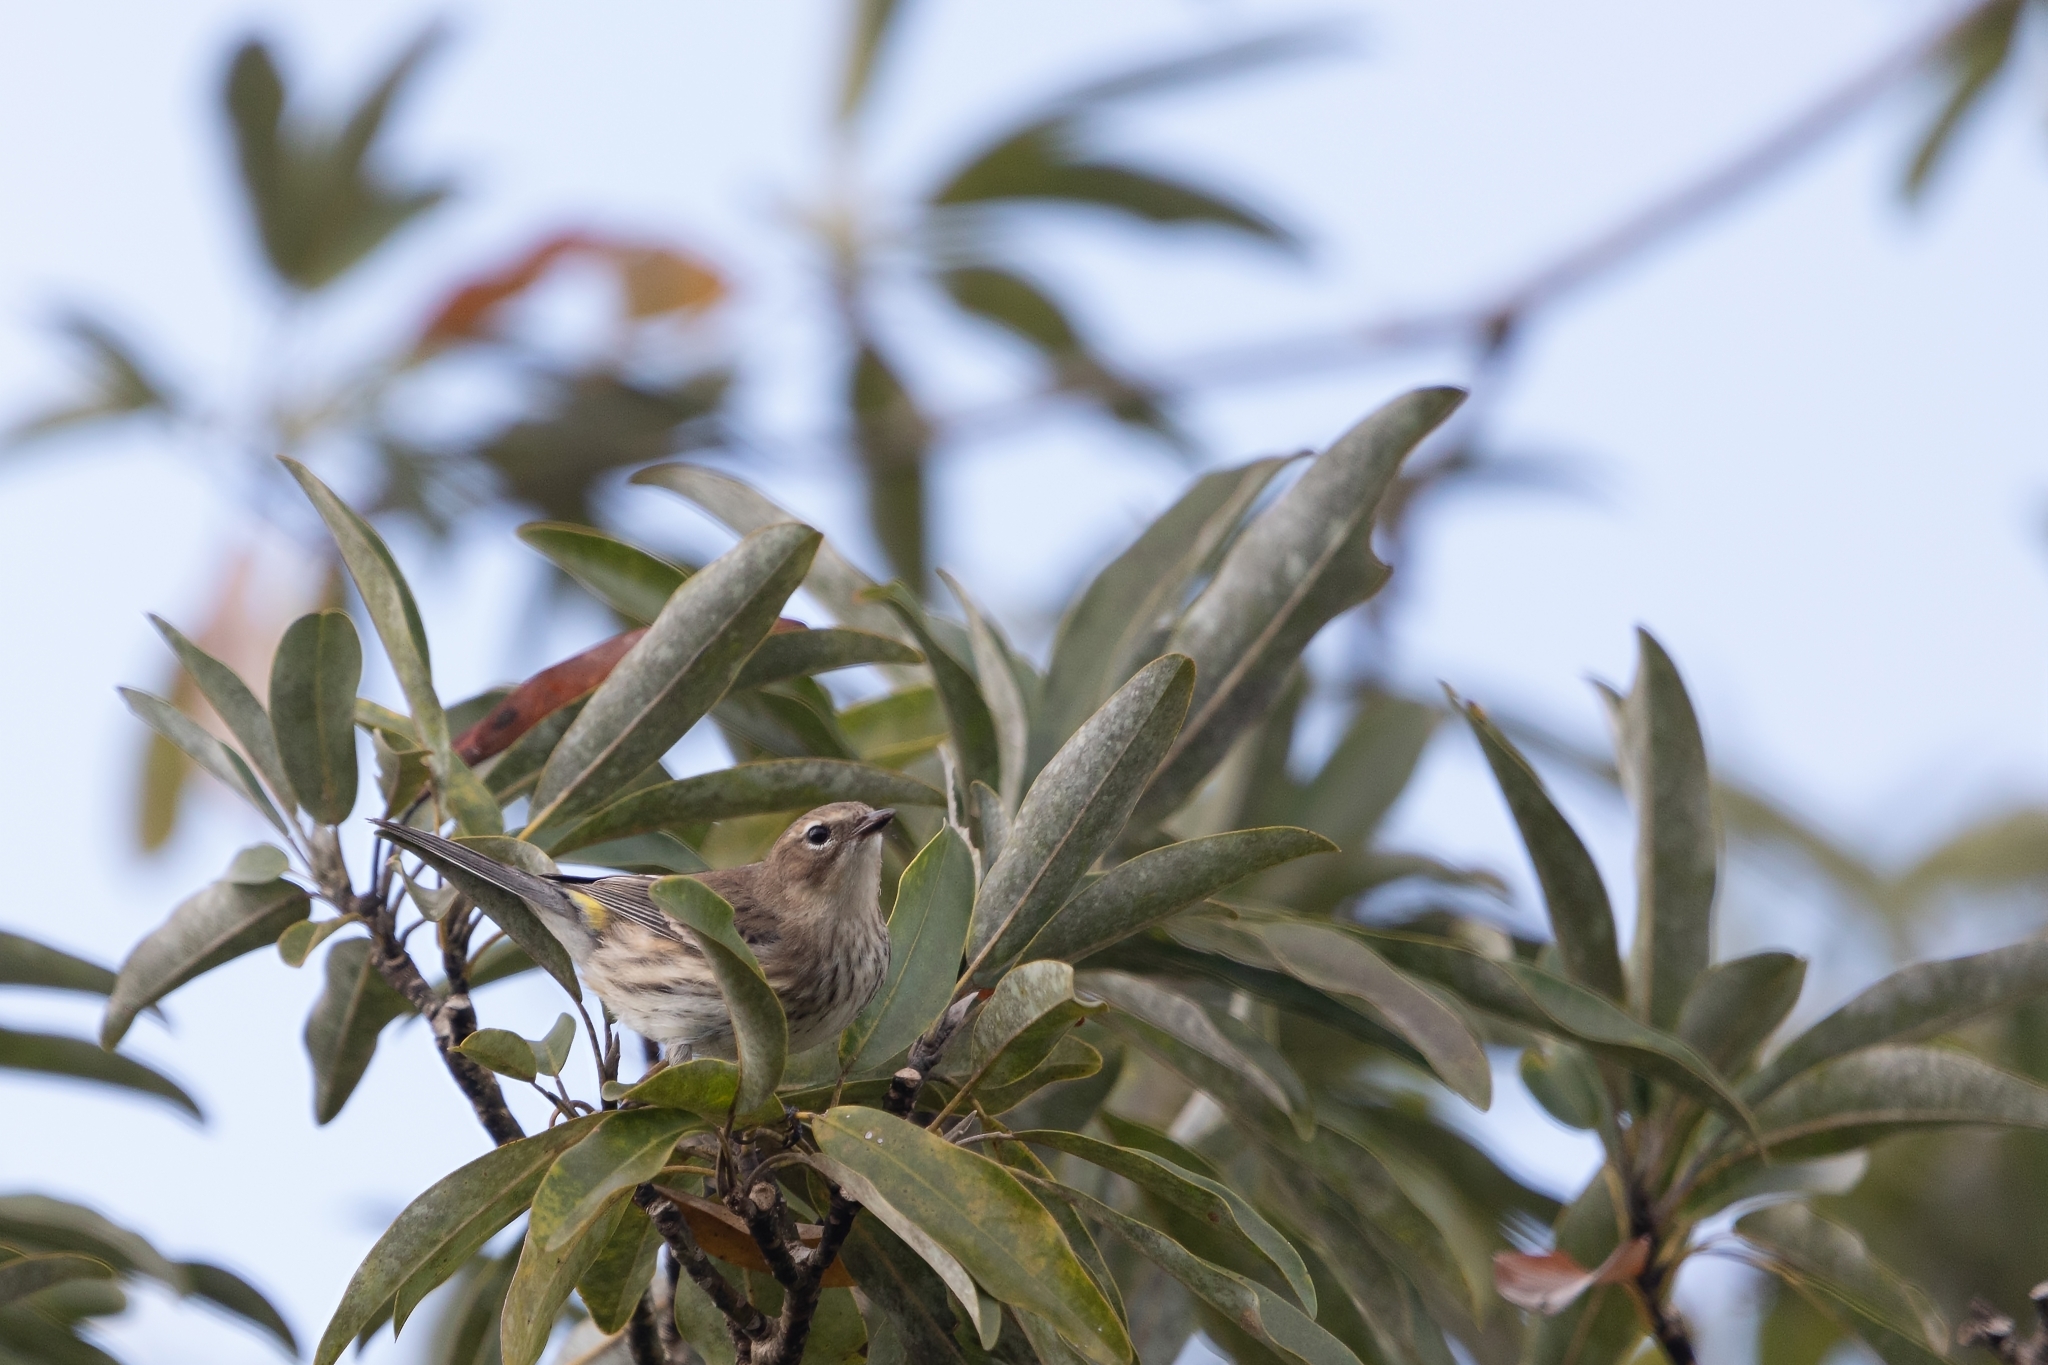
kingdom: Animalia
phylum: Chordata
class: Aves
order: Passeriformes
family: Parulidae
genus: Setophaga
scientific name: Setophaga coronata
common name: Myrtle warbler
